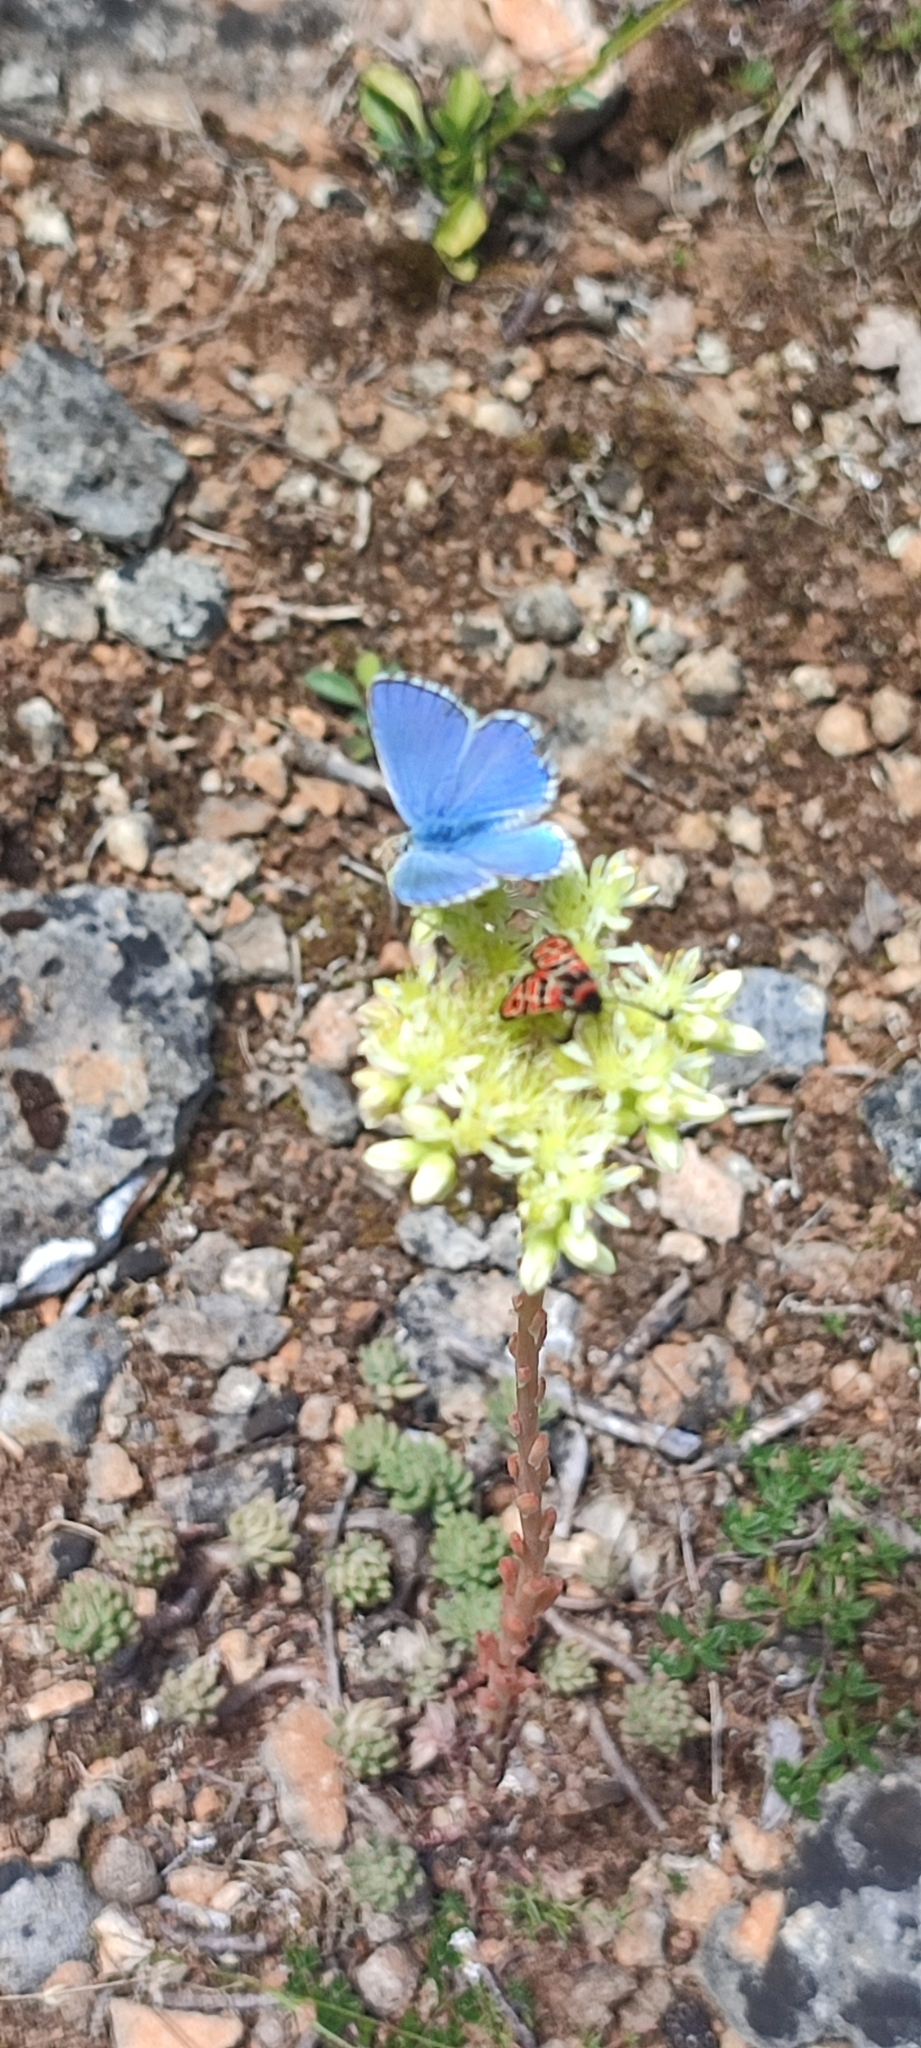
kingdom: Plantae
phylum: Tracheophyta
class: Magnoliopsida
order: Saxifragales
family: Crassulaceae
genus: Petrosedum
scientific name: Petrosedum sediforme
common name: Pale stonecrop
